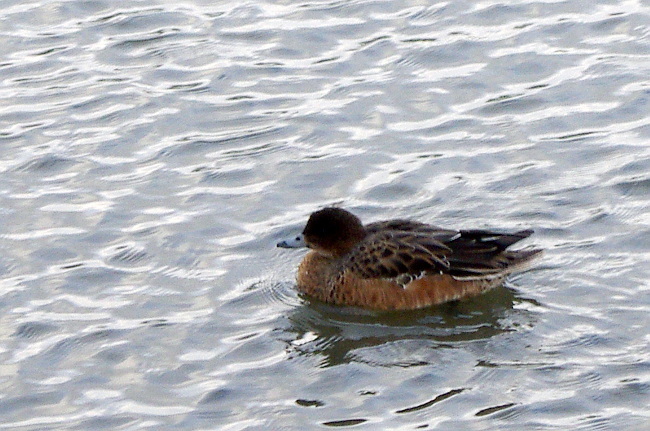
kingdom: Animalia
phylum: Chordata
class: Aves
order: Anseriformes
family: Anatidae
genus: Mareca
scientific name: Mareca penelope
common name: Eurasian wigeon
